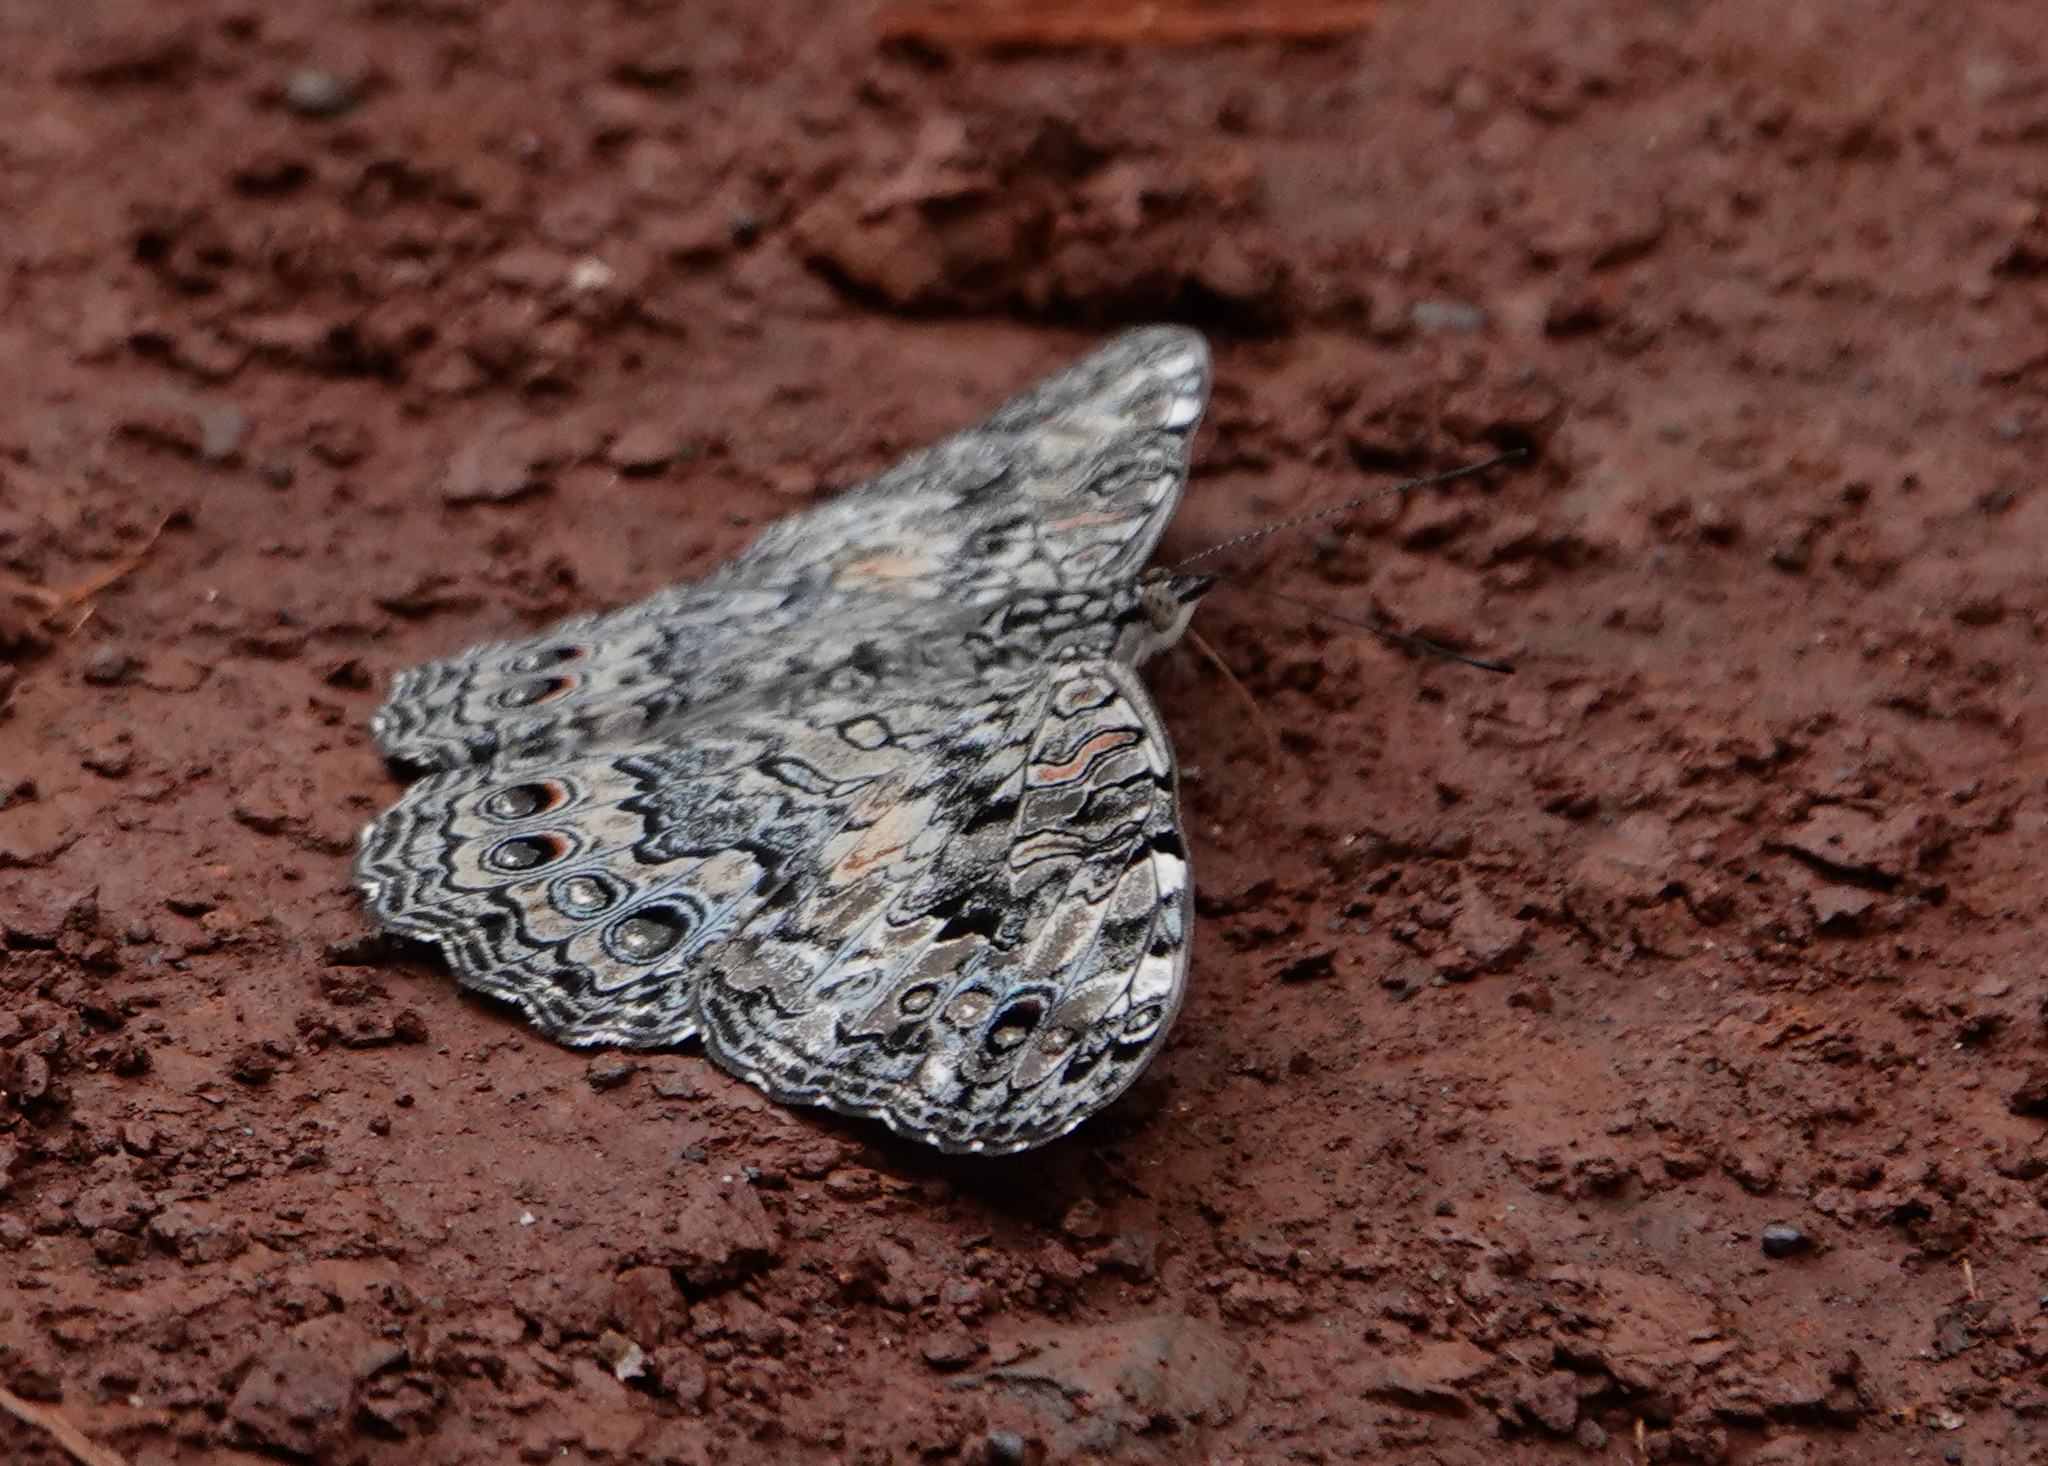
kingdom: Animalia
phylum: Arthropoda
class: Insecta
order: Lepidoptera
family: Nymphalidae
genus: Hamadryas
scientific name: Hamadryas februa
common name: Gray cracker
